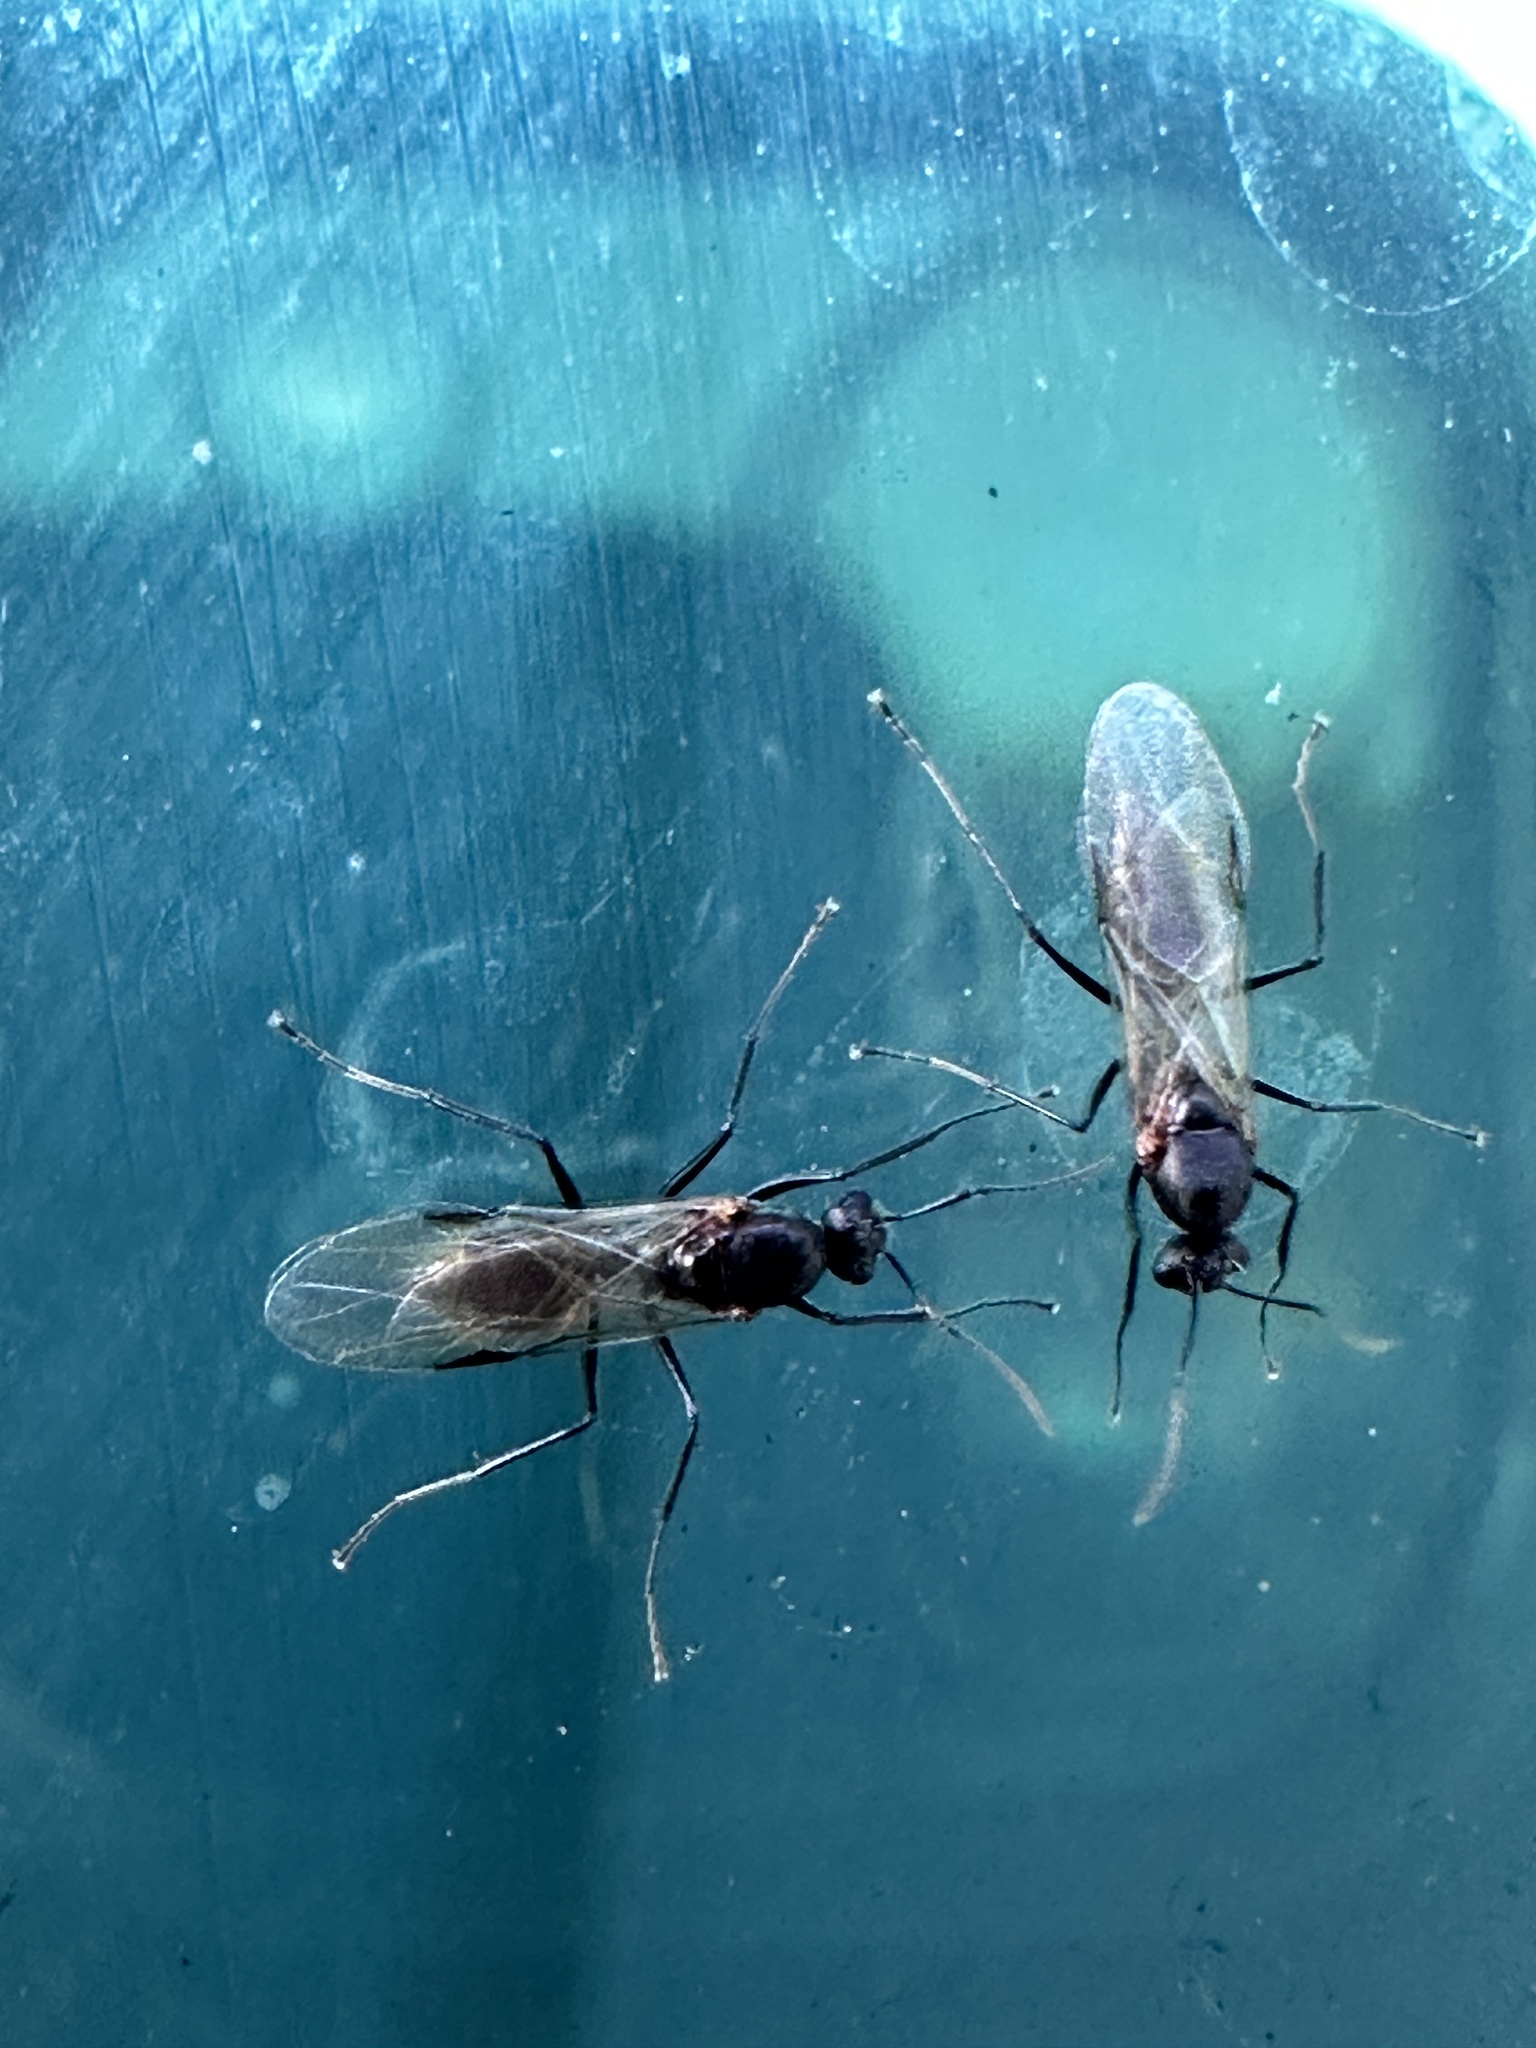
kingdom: Animalia
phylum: Arthropoda
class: Insecta
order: Hymenoptera
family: Formicidae
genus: Camponotus
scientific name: Camponotus planatus
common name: Compact carpenter ant
